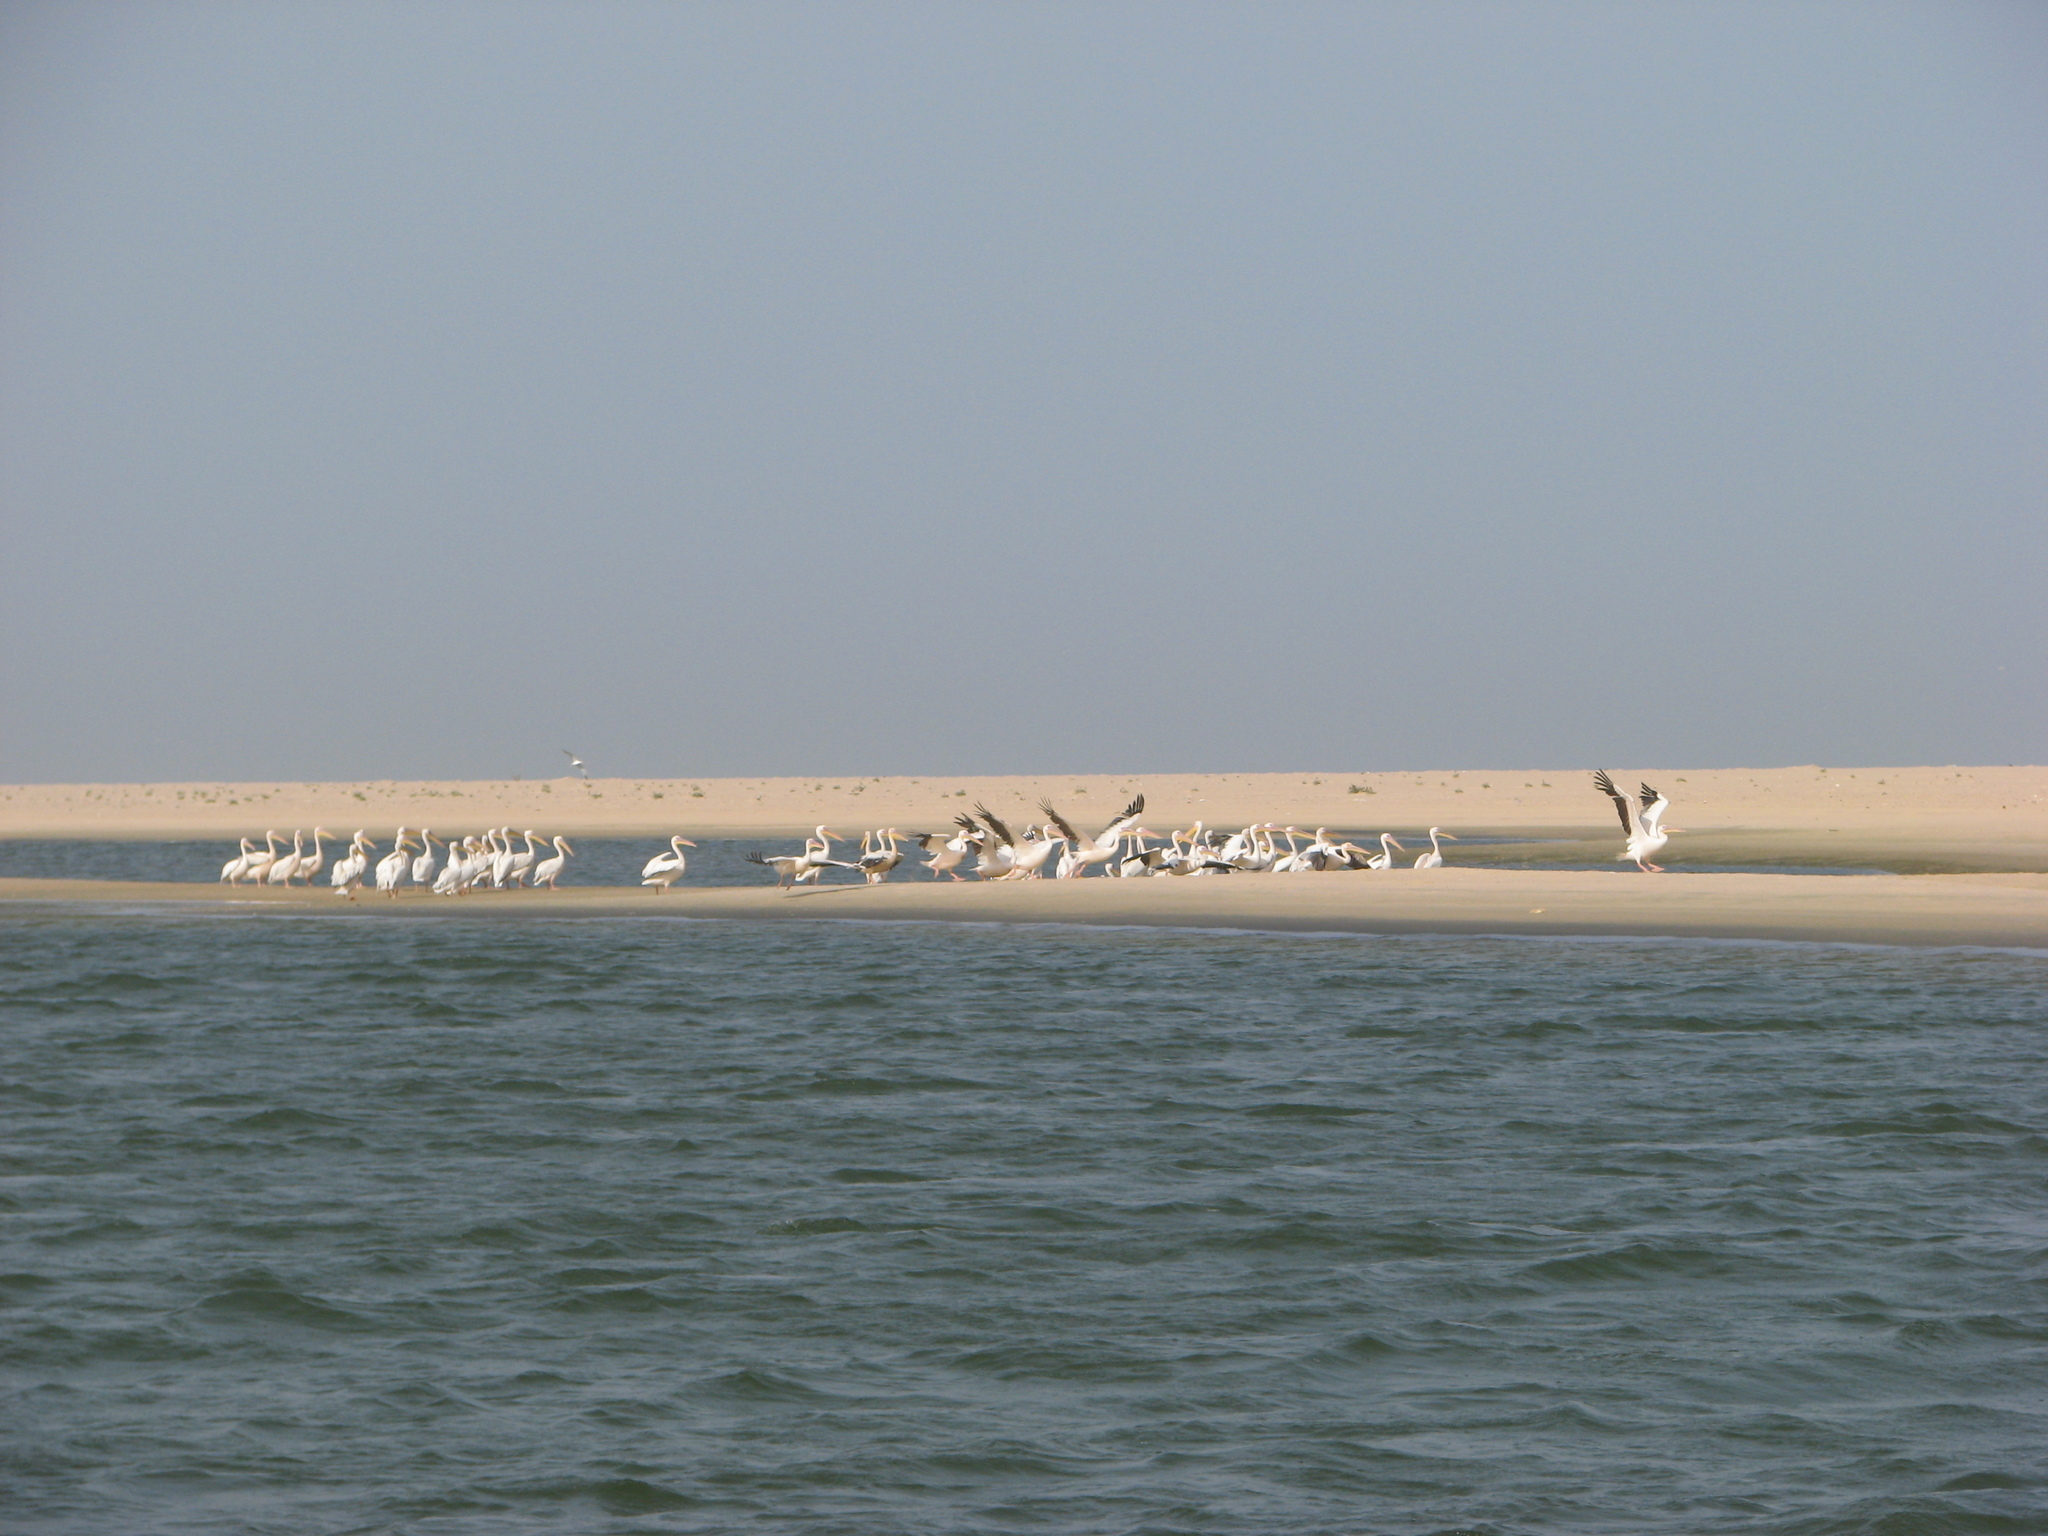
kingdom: Animalia
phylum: Chordata
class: Aves
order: Pelecaniformes
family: Pelecanidae
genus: Pelecanus
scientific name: Pelecanus onocrotalus
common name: Great white pelican
